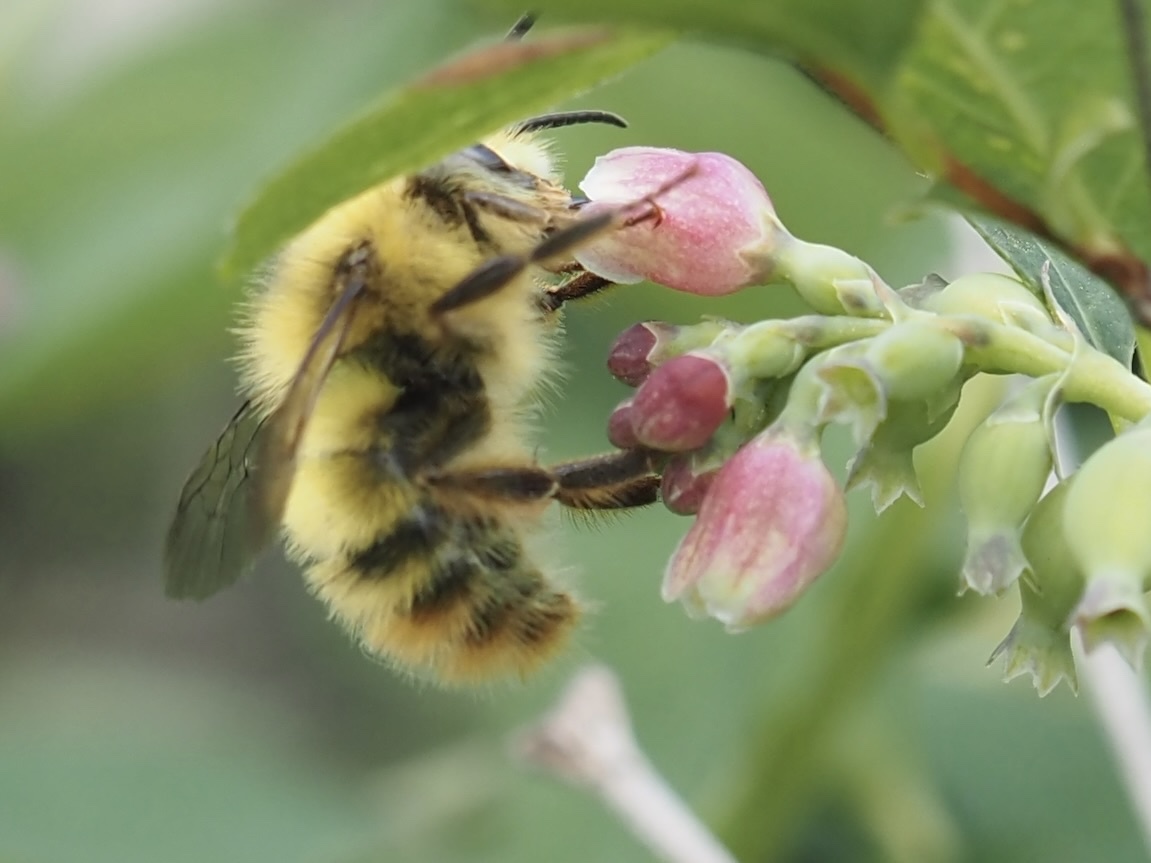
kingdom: Animalia
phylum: Arthropoda
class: Insecta
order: Hymenoptera
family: Apidae
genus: Bombus
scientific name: Bombus mixtus
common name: Fuzzy-horned bumble bee
